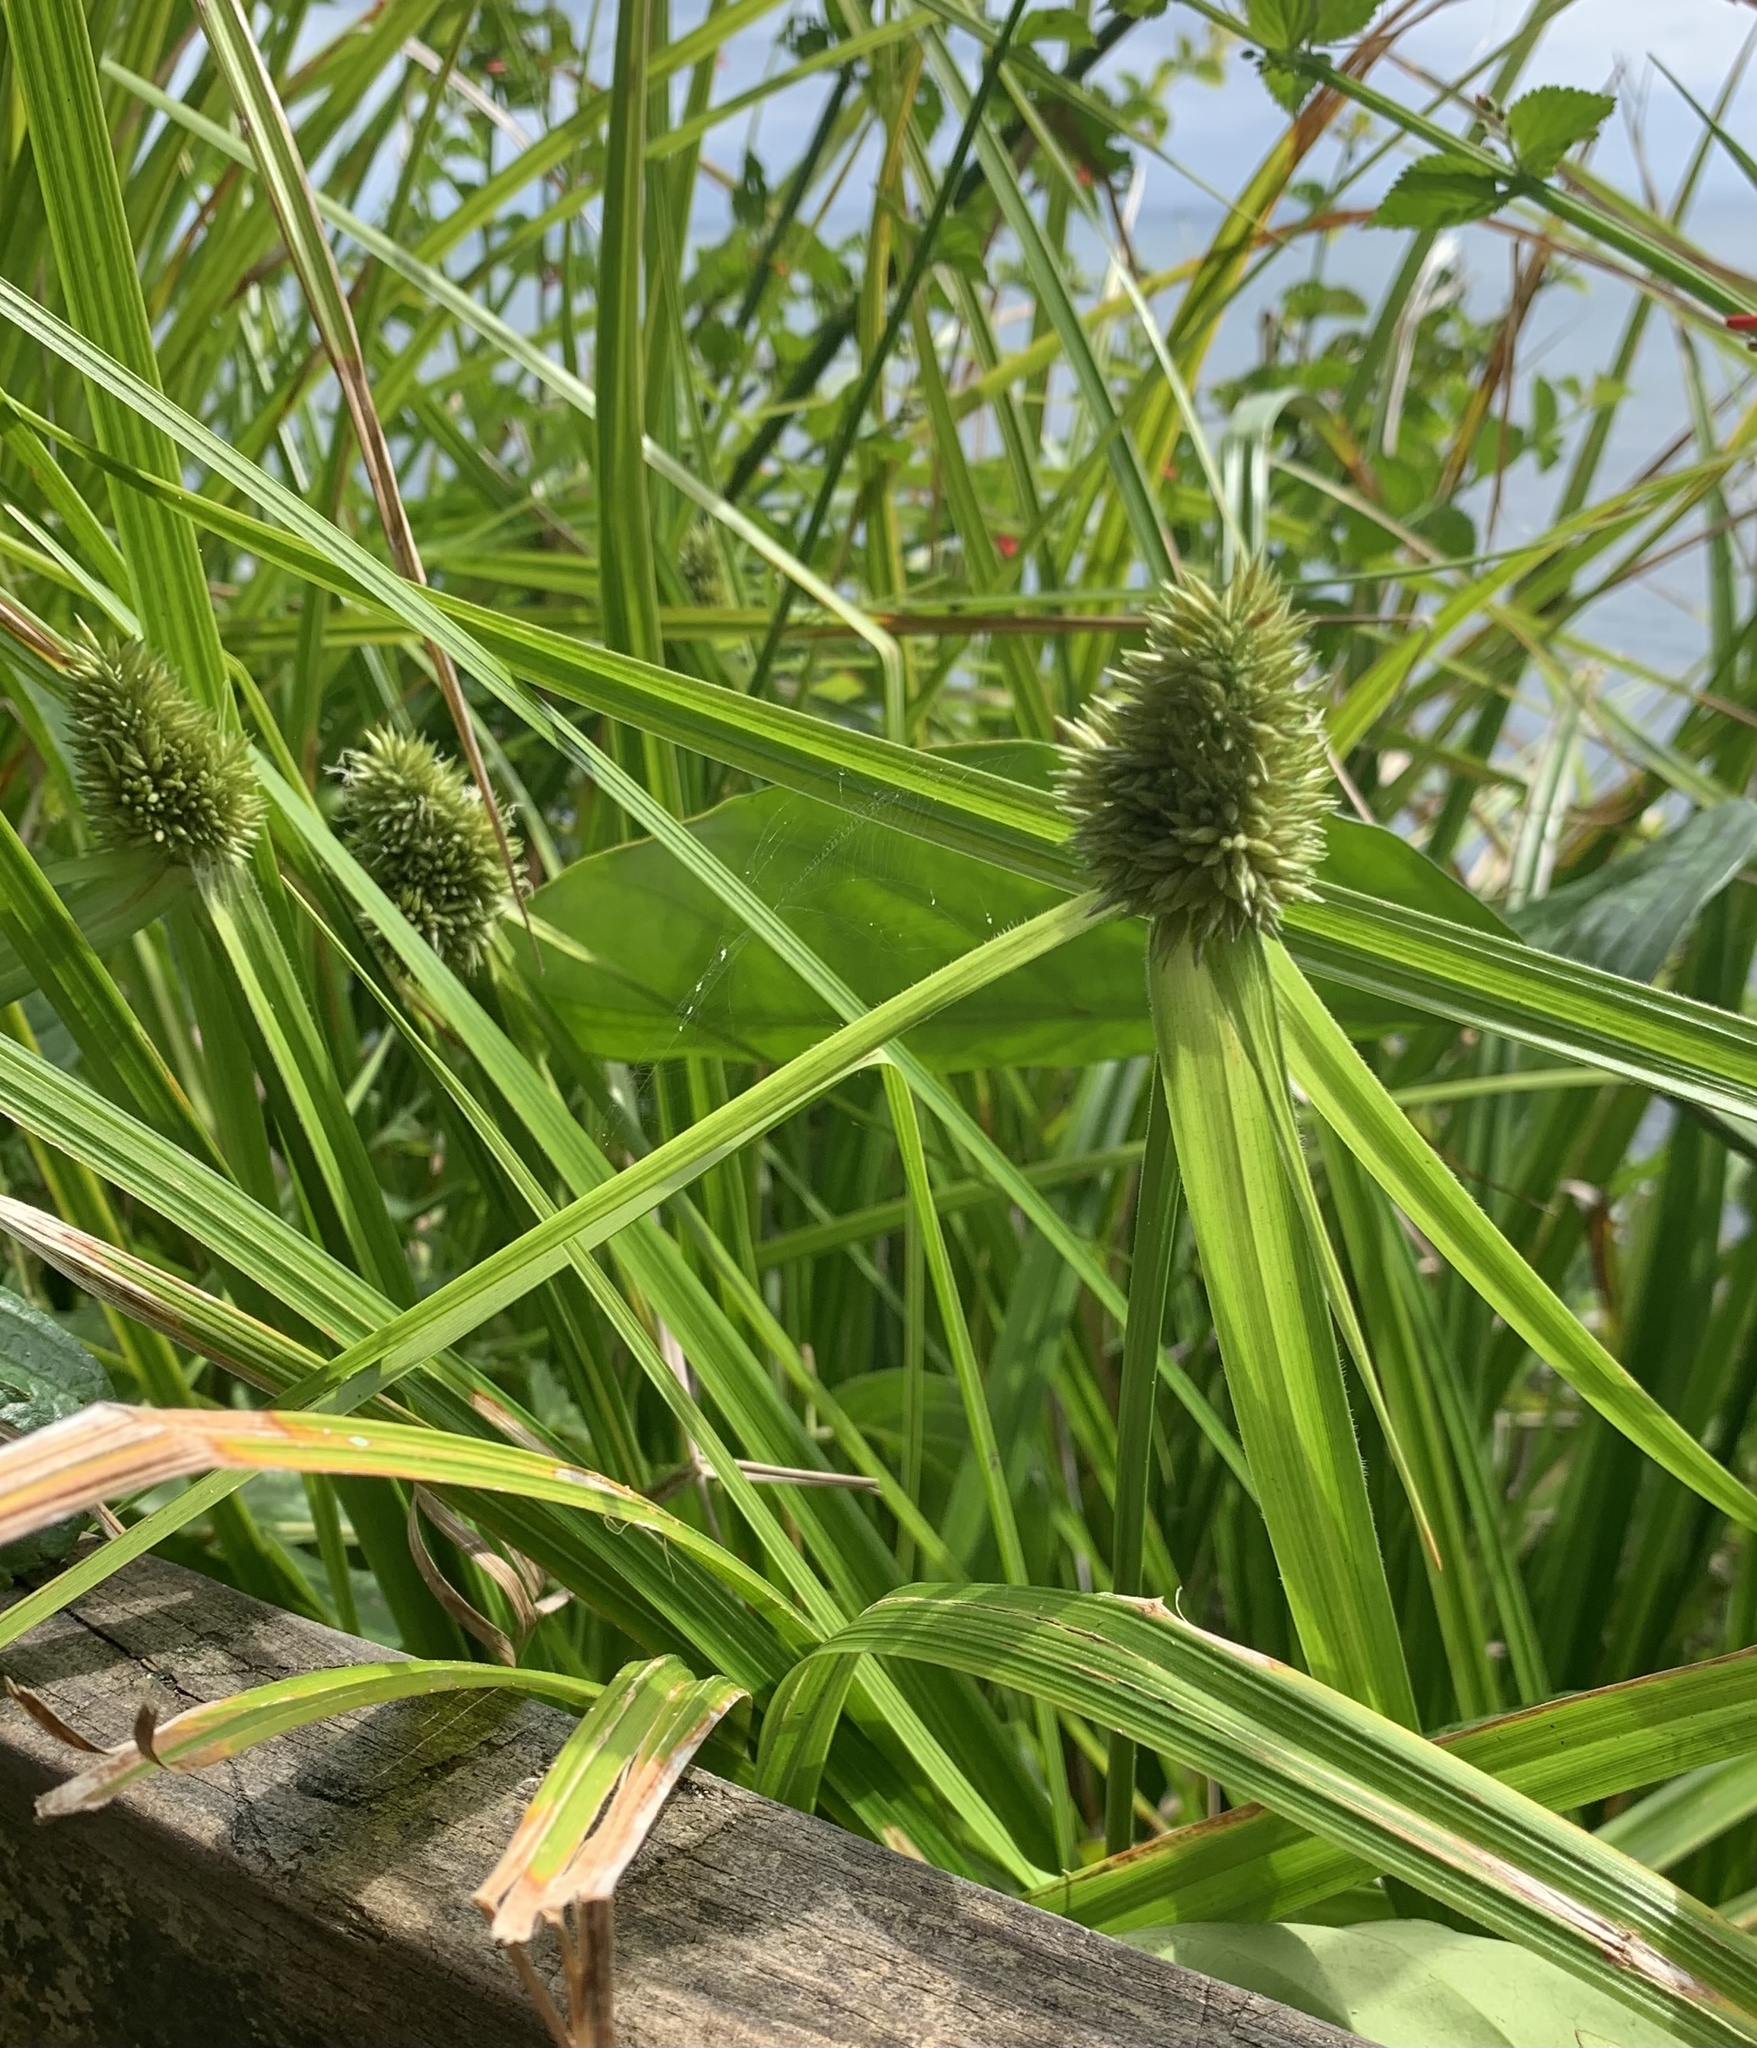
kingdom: Plantae
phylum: Tracheophyta
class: Liliopsida
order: Poales
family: Cyperaceae
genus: Rhynchospora
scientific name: Rhynchospora cephalotes
